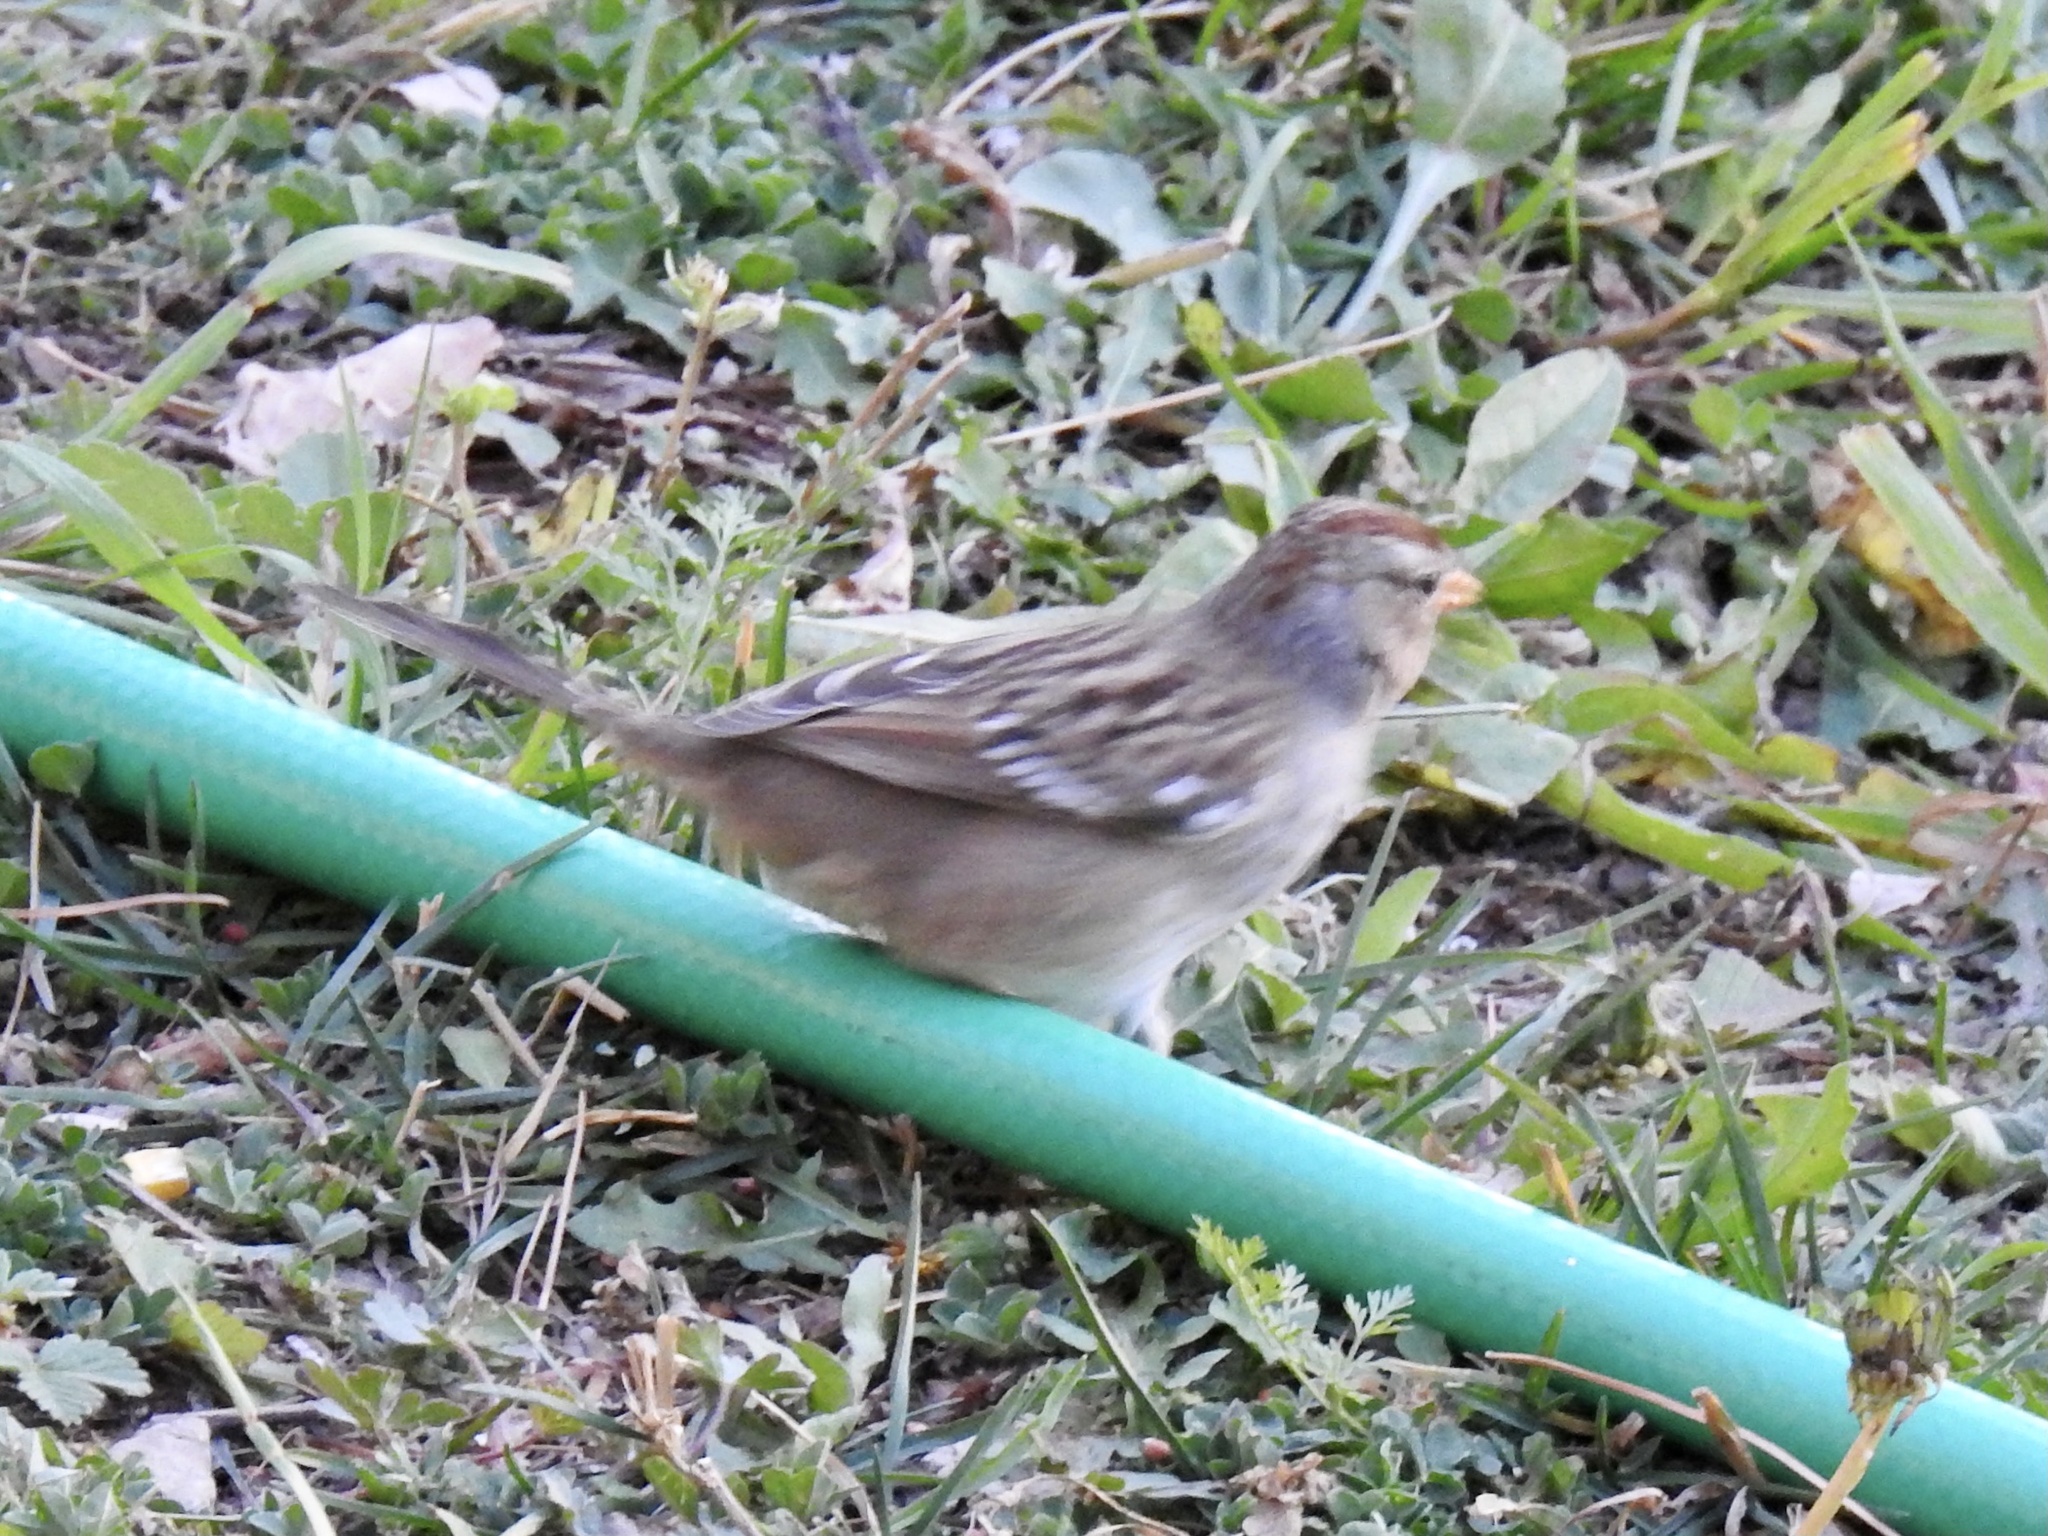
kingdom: Animalia
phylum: Chordata
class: Aves
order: Passeriformes
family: Passerellidae
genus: Zonotrichia
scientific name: Zonotrichia leucophrys
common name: White-crowned sparrow
